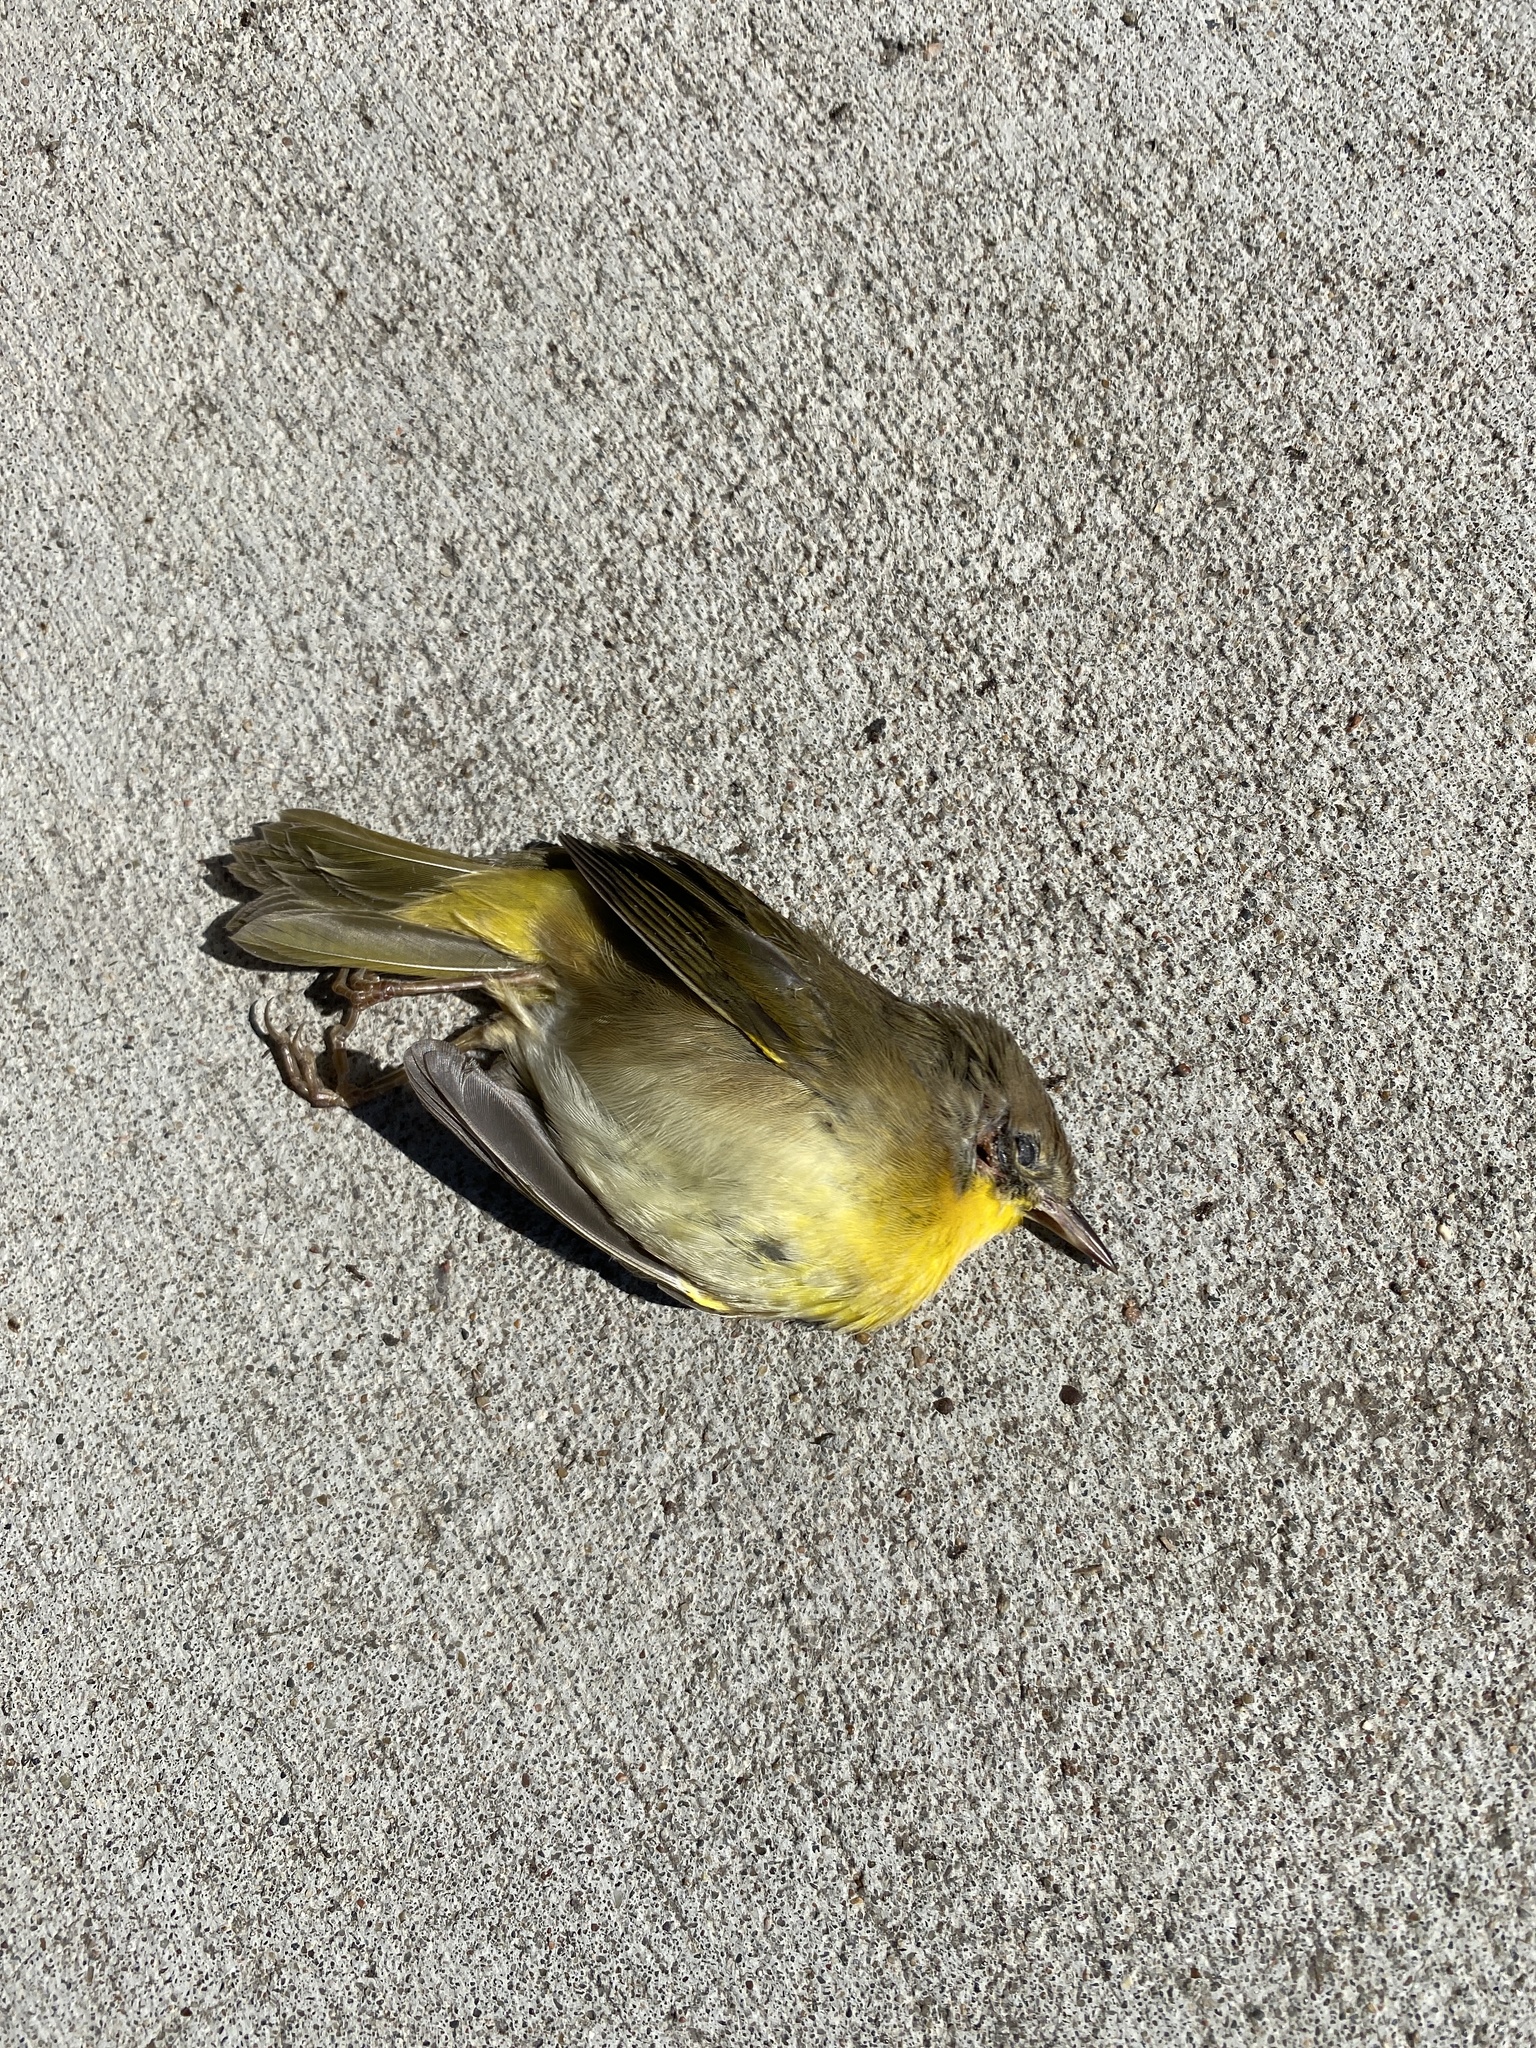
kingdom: Animalia
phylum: Chordata
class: Aves
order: Passeriformes
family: Parulidae
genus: Geothlypis
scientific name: Geothlypis trichas
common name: Common yellowthroat
